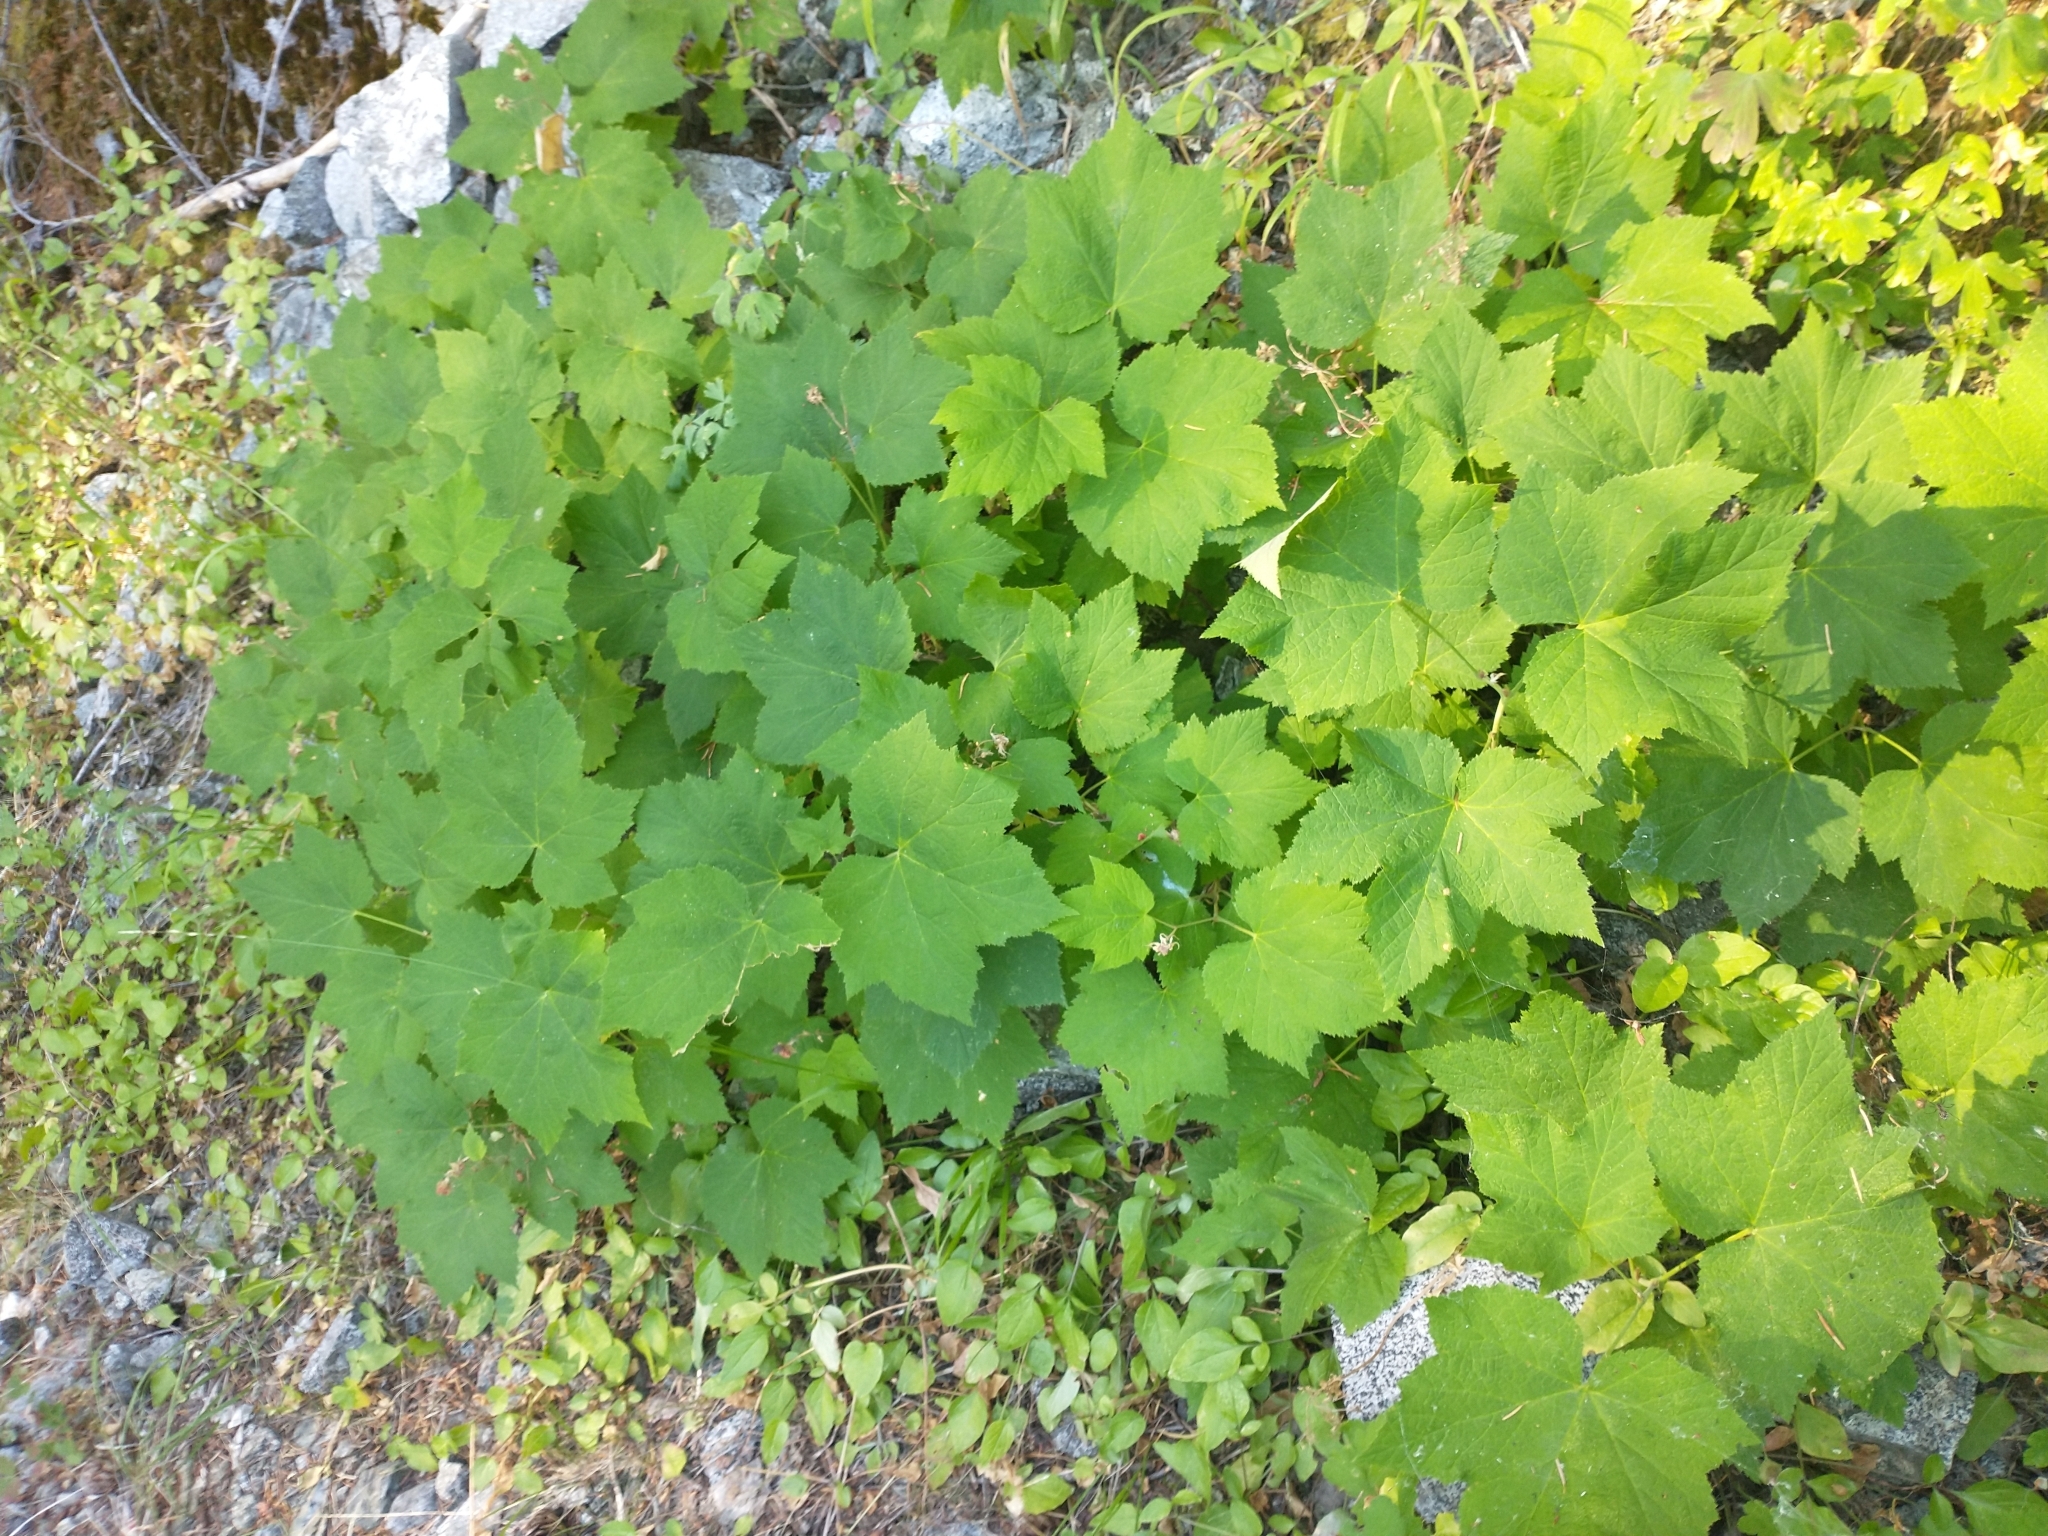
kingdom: Plantae
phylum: Tracheophyta
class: Magnoliopsida
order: Rosales
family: Rosaceae
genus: Rubus
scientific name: Rubus parviflorus
